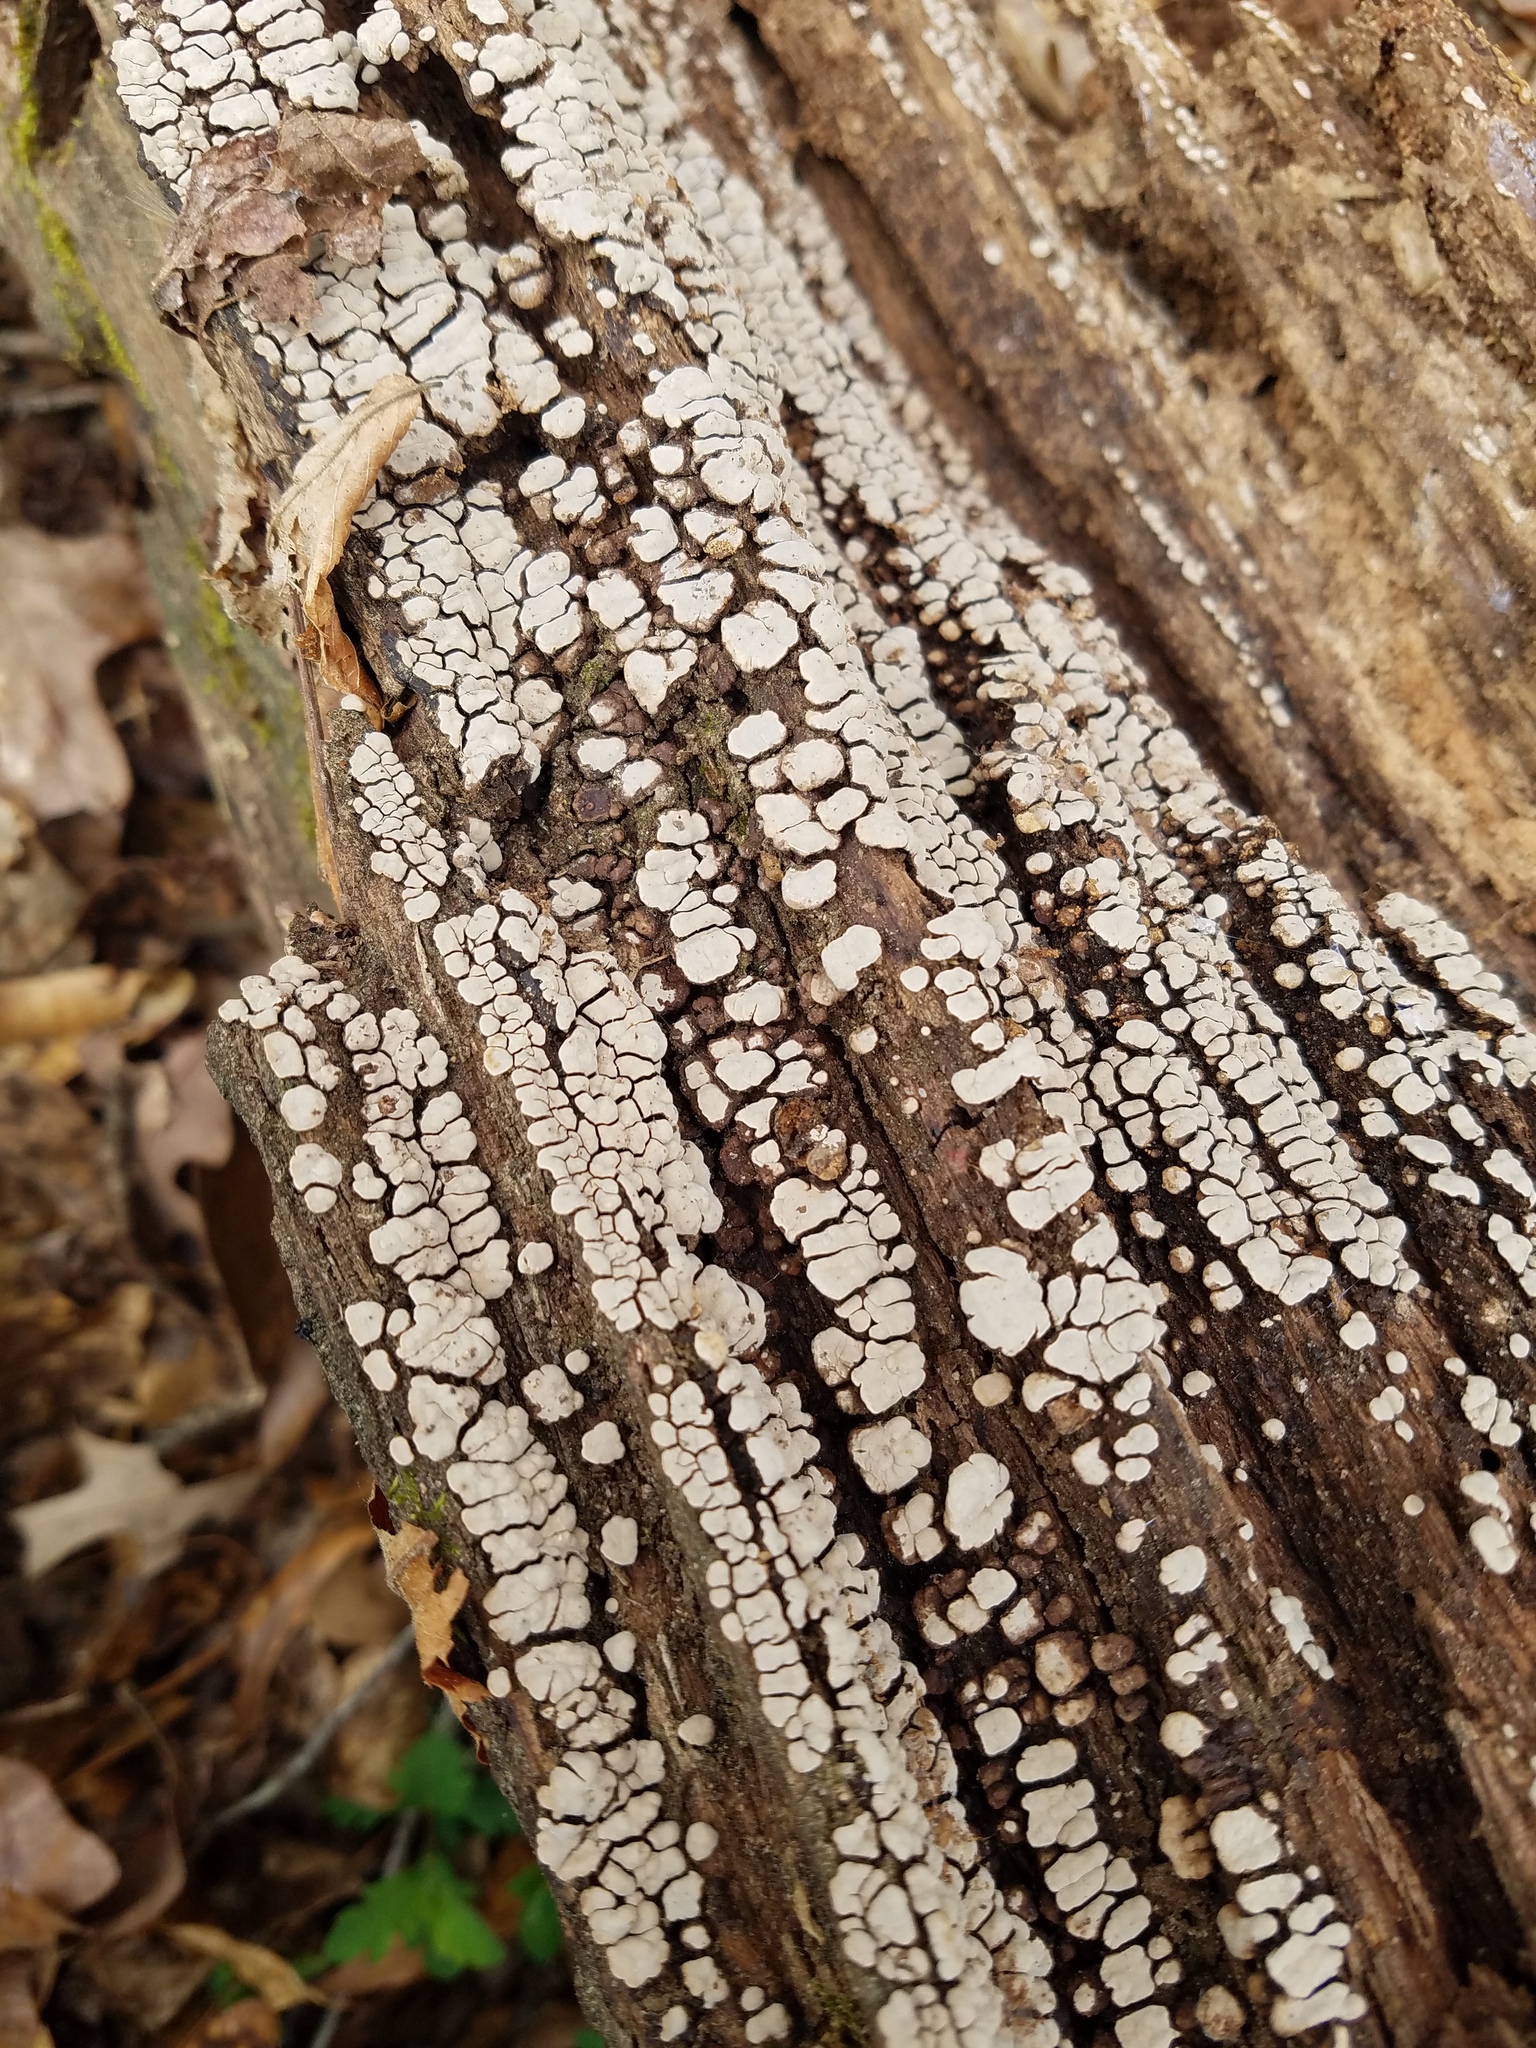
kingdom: Fungi
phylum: Basidiomycota
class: Agaricomycetes
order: Russulales
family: Stereaceae
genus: Xylobolus
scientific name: Xylobolus frustulatus
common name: Ceramic parchment
